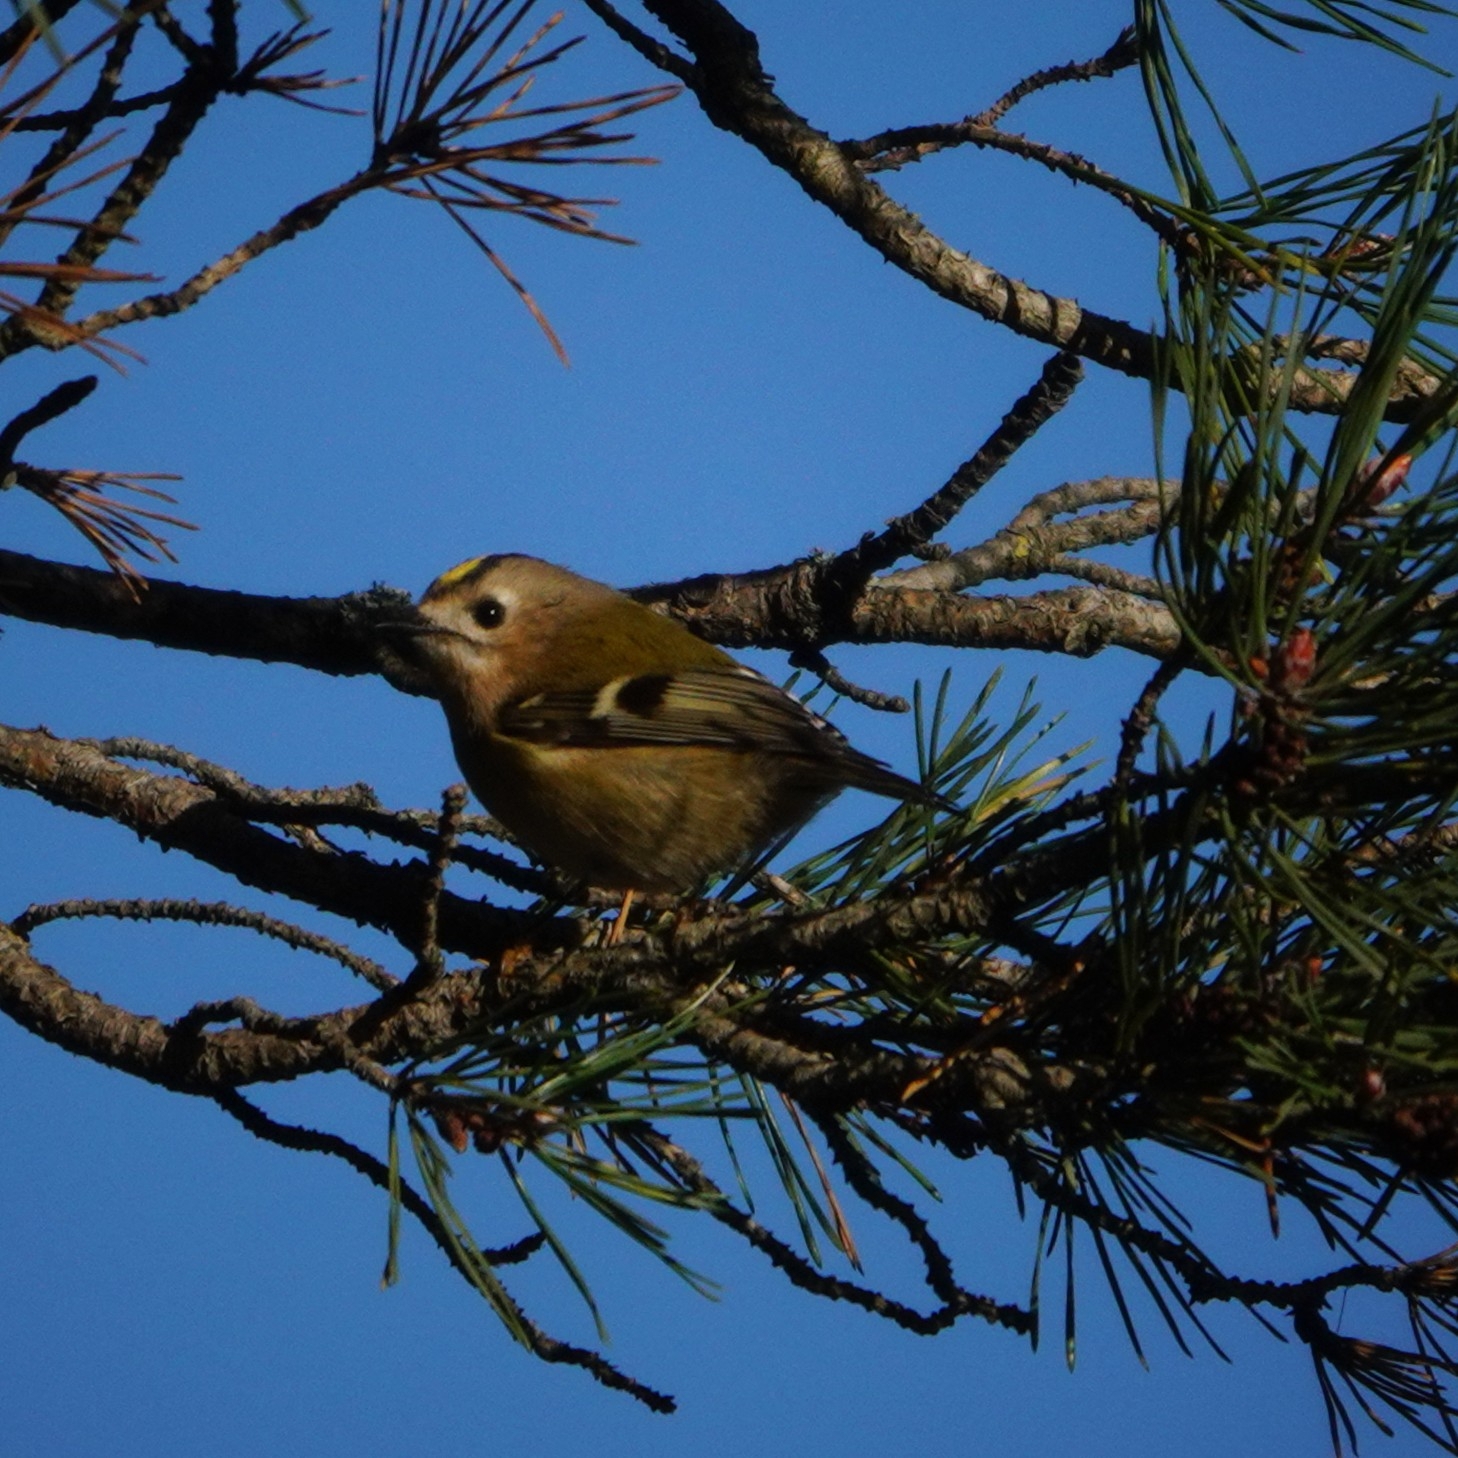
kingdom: Animalia
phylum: Chordata
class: Aves
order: Passeriformes
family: Regulidae
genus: Regulus
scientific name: Regulus regulus
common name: Goldcrest
